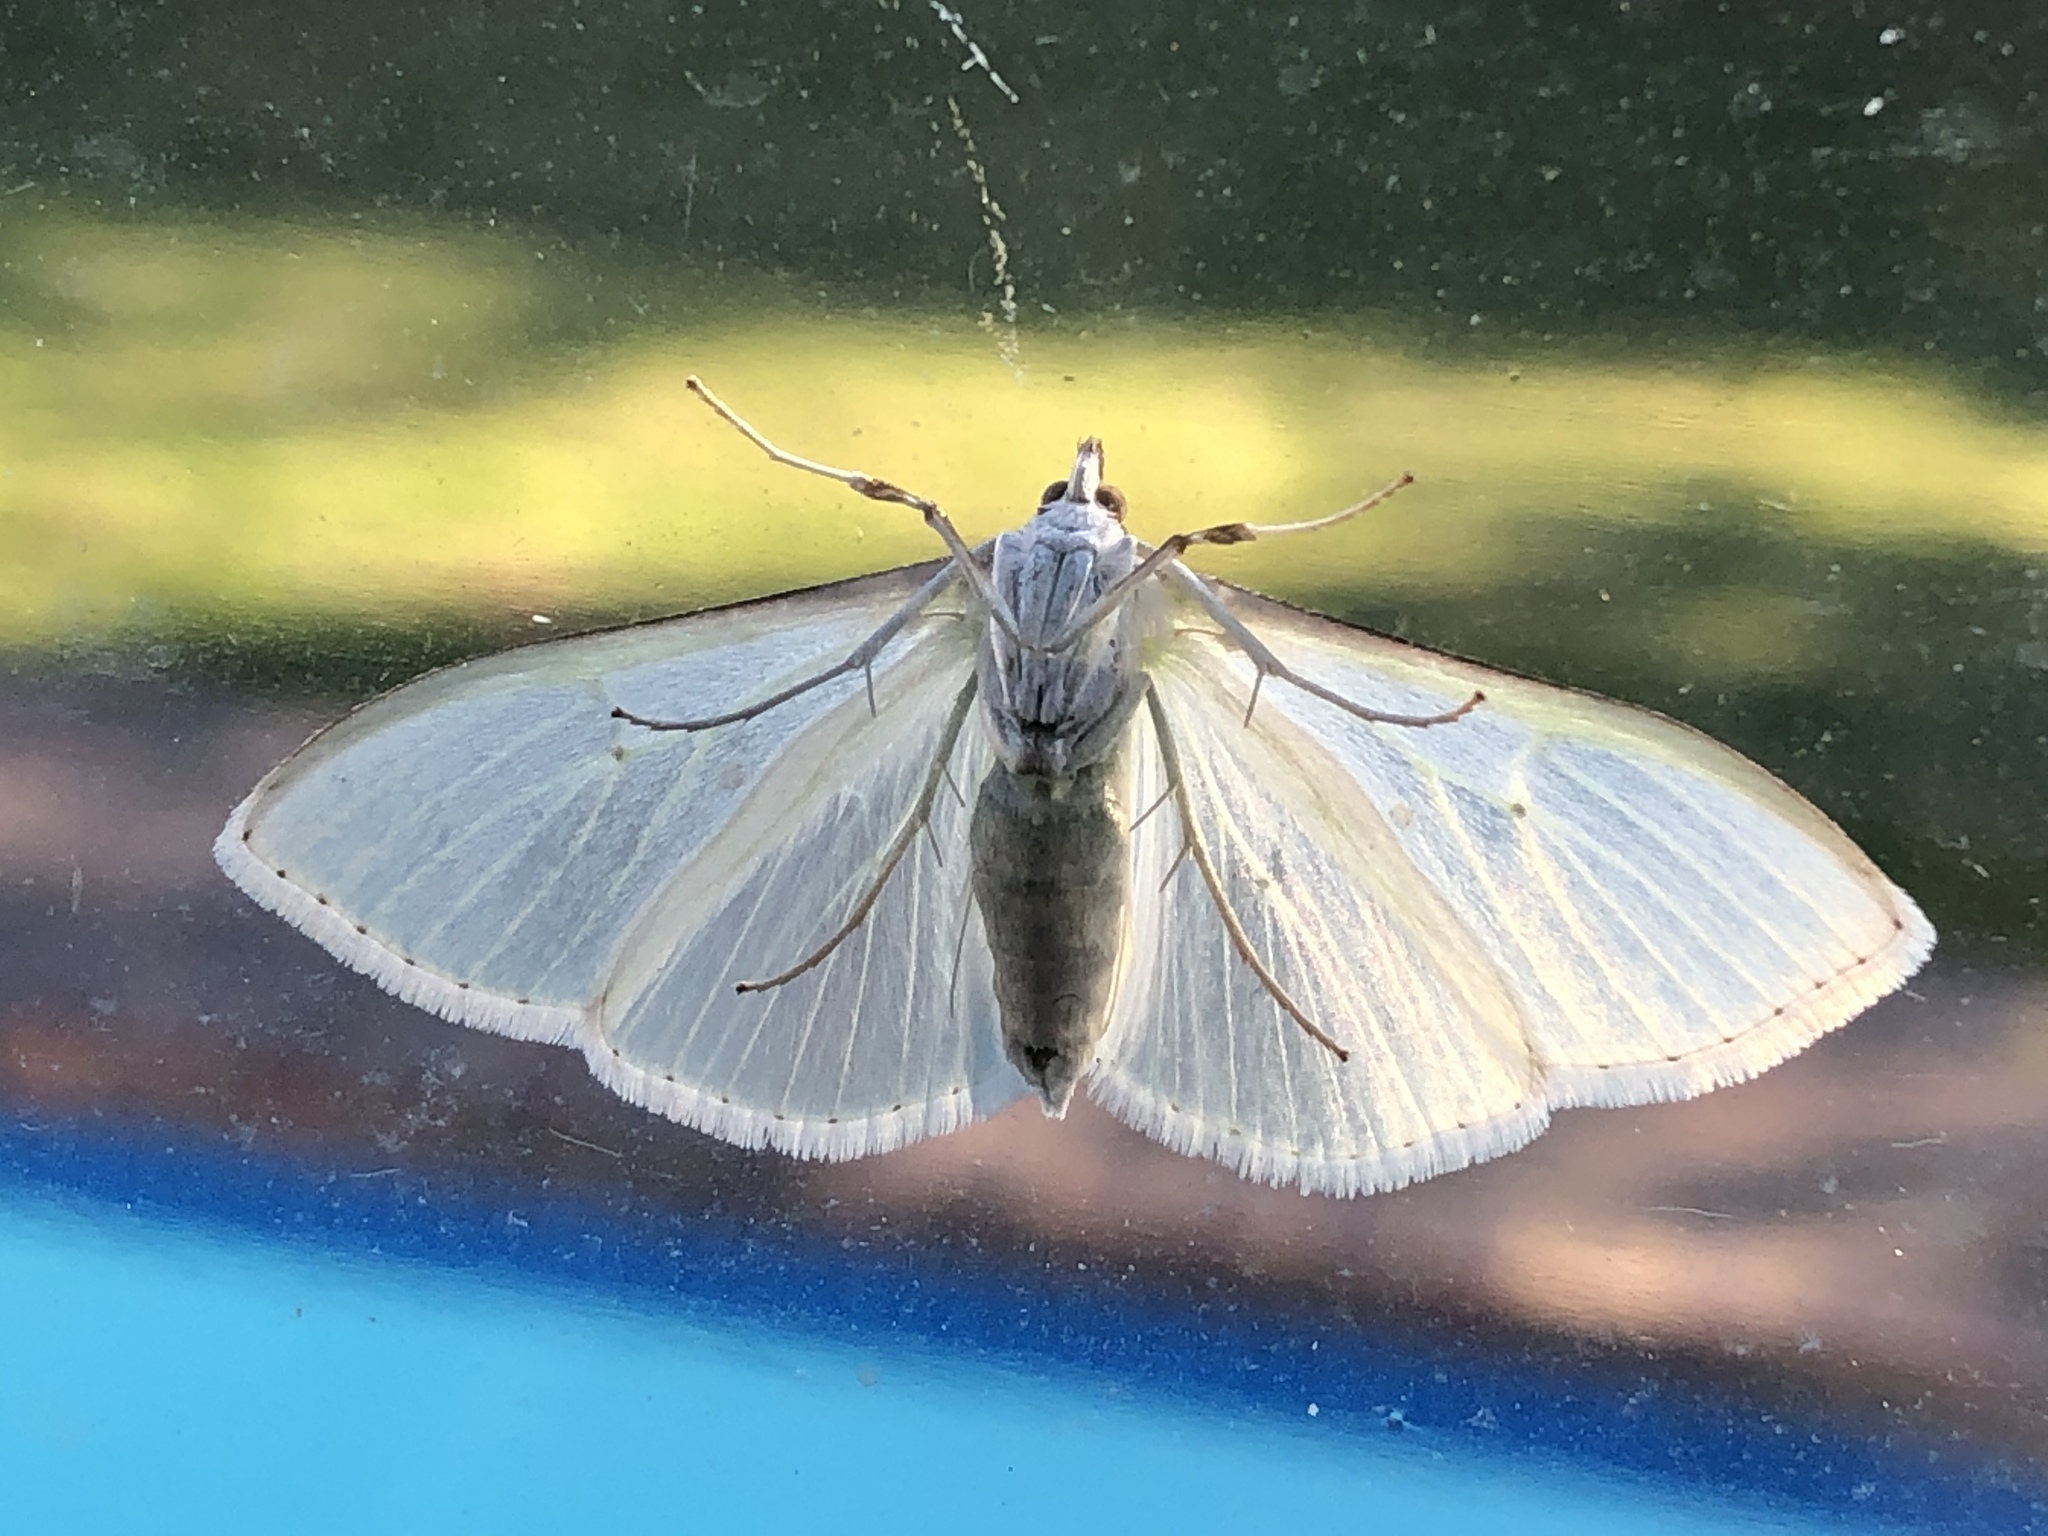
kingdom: Animalia
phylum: Arthropoda
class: Insecta
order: Lepidoptera
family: Crambidae
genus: Palpita
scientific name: Palpita vitrealis
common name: Olive-tree pearl
